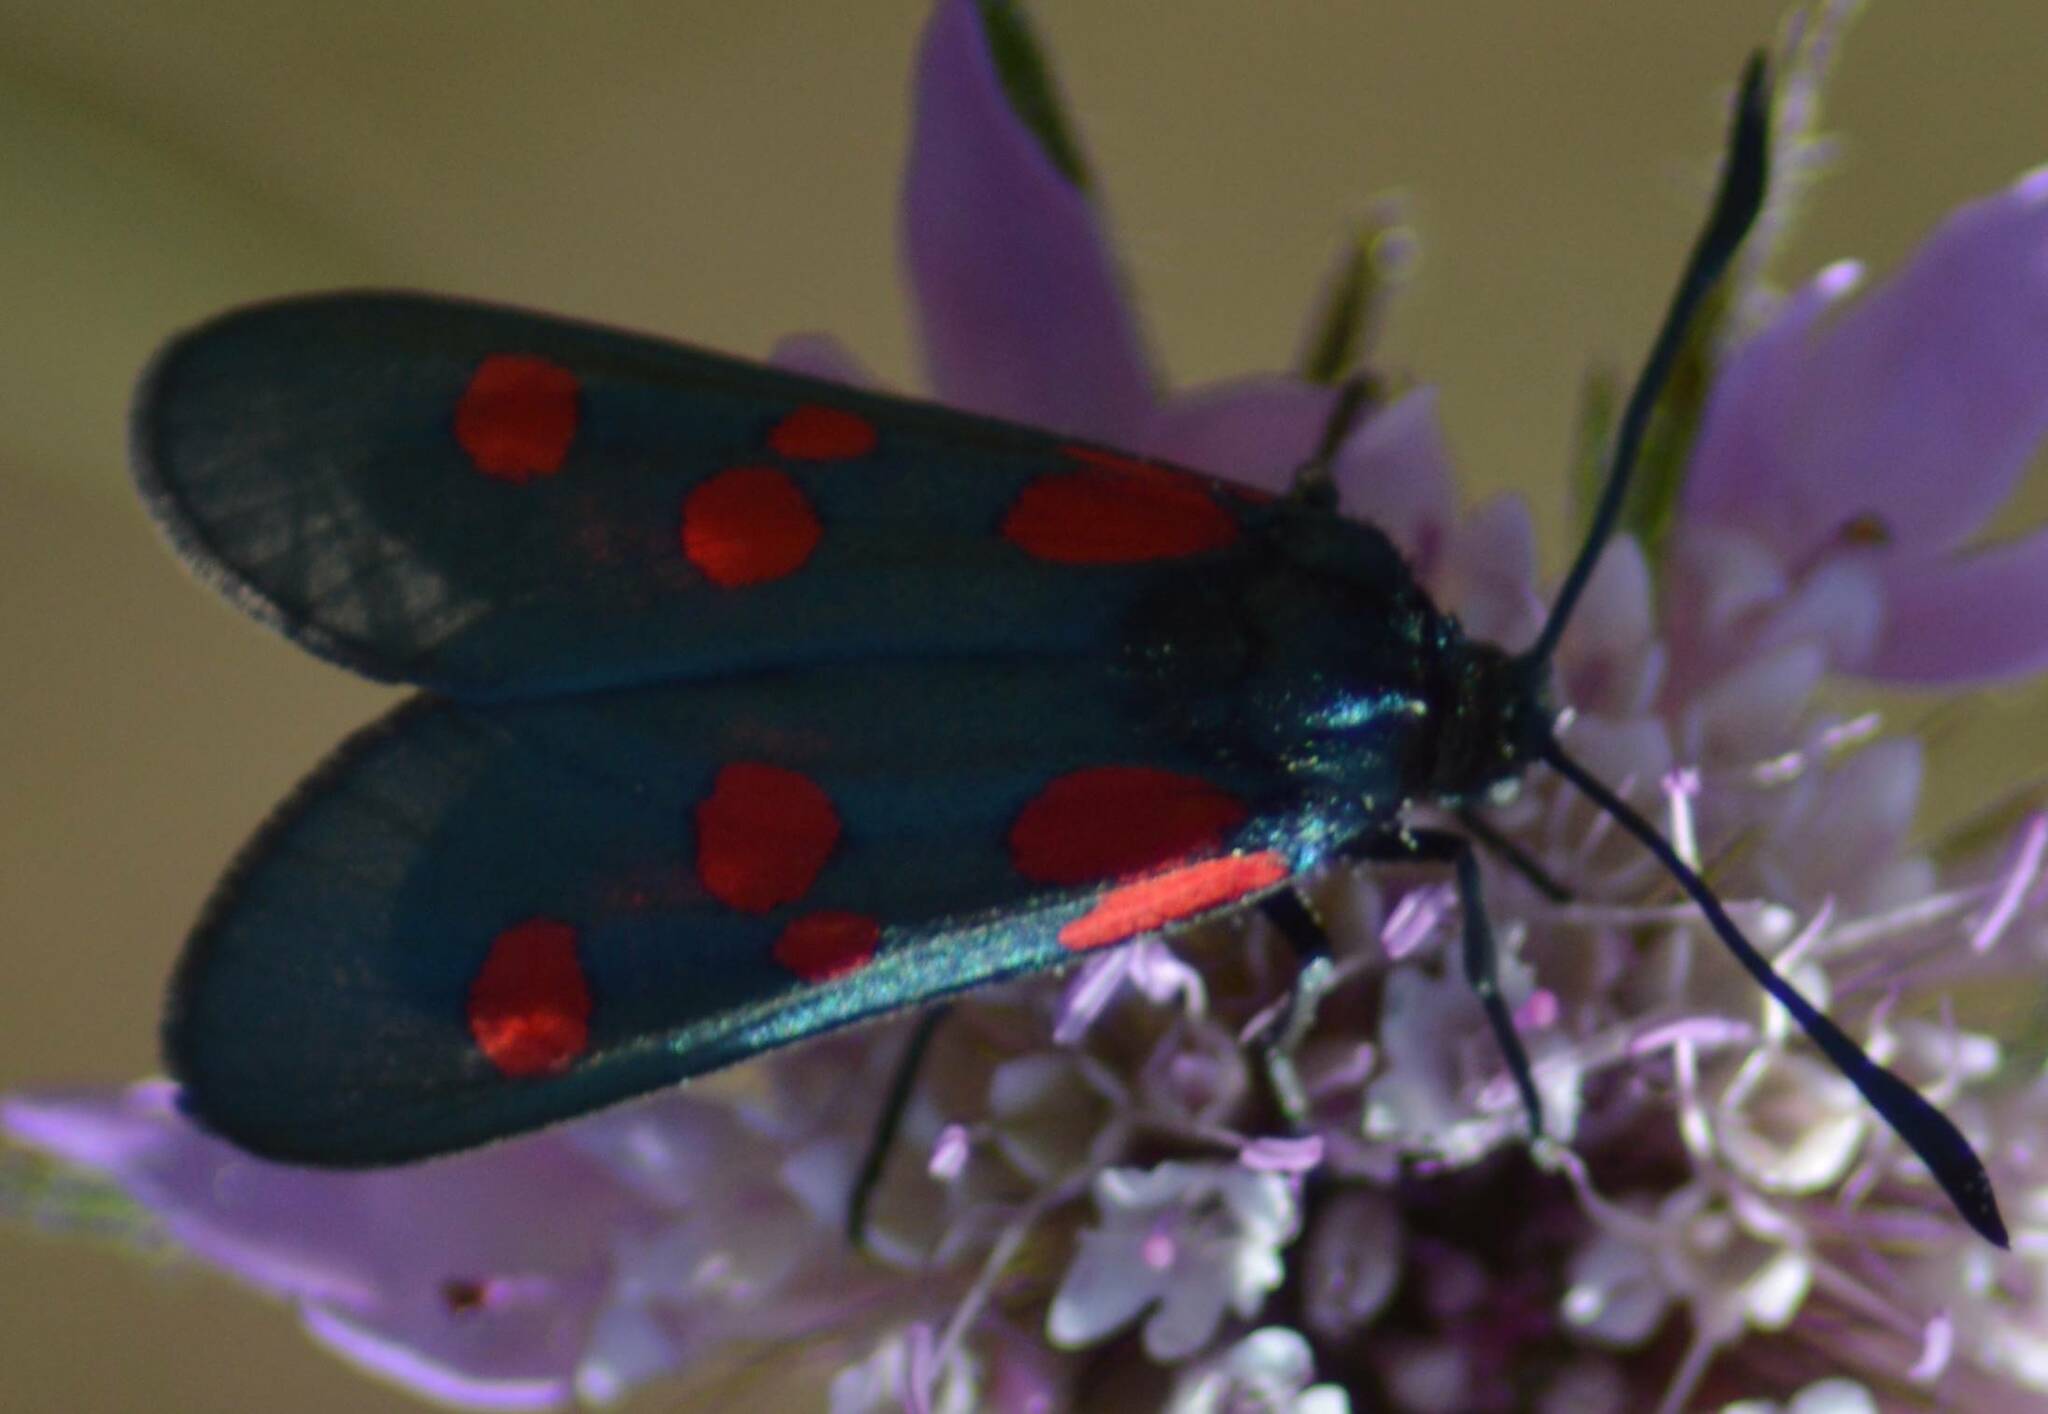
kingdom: Animalia
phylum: Arthropoda
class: Insecta
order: Lepidoptera
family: Zygaenidae
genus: Zygaena
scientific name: Zygaena trifolii
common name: Five-spot burnet
